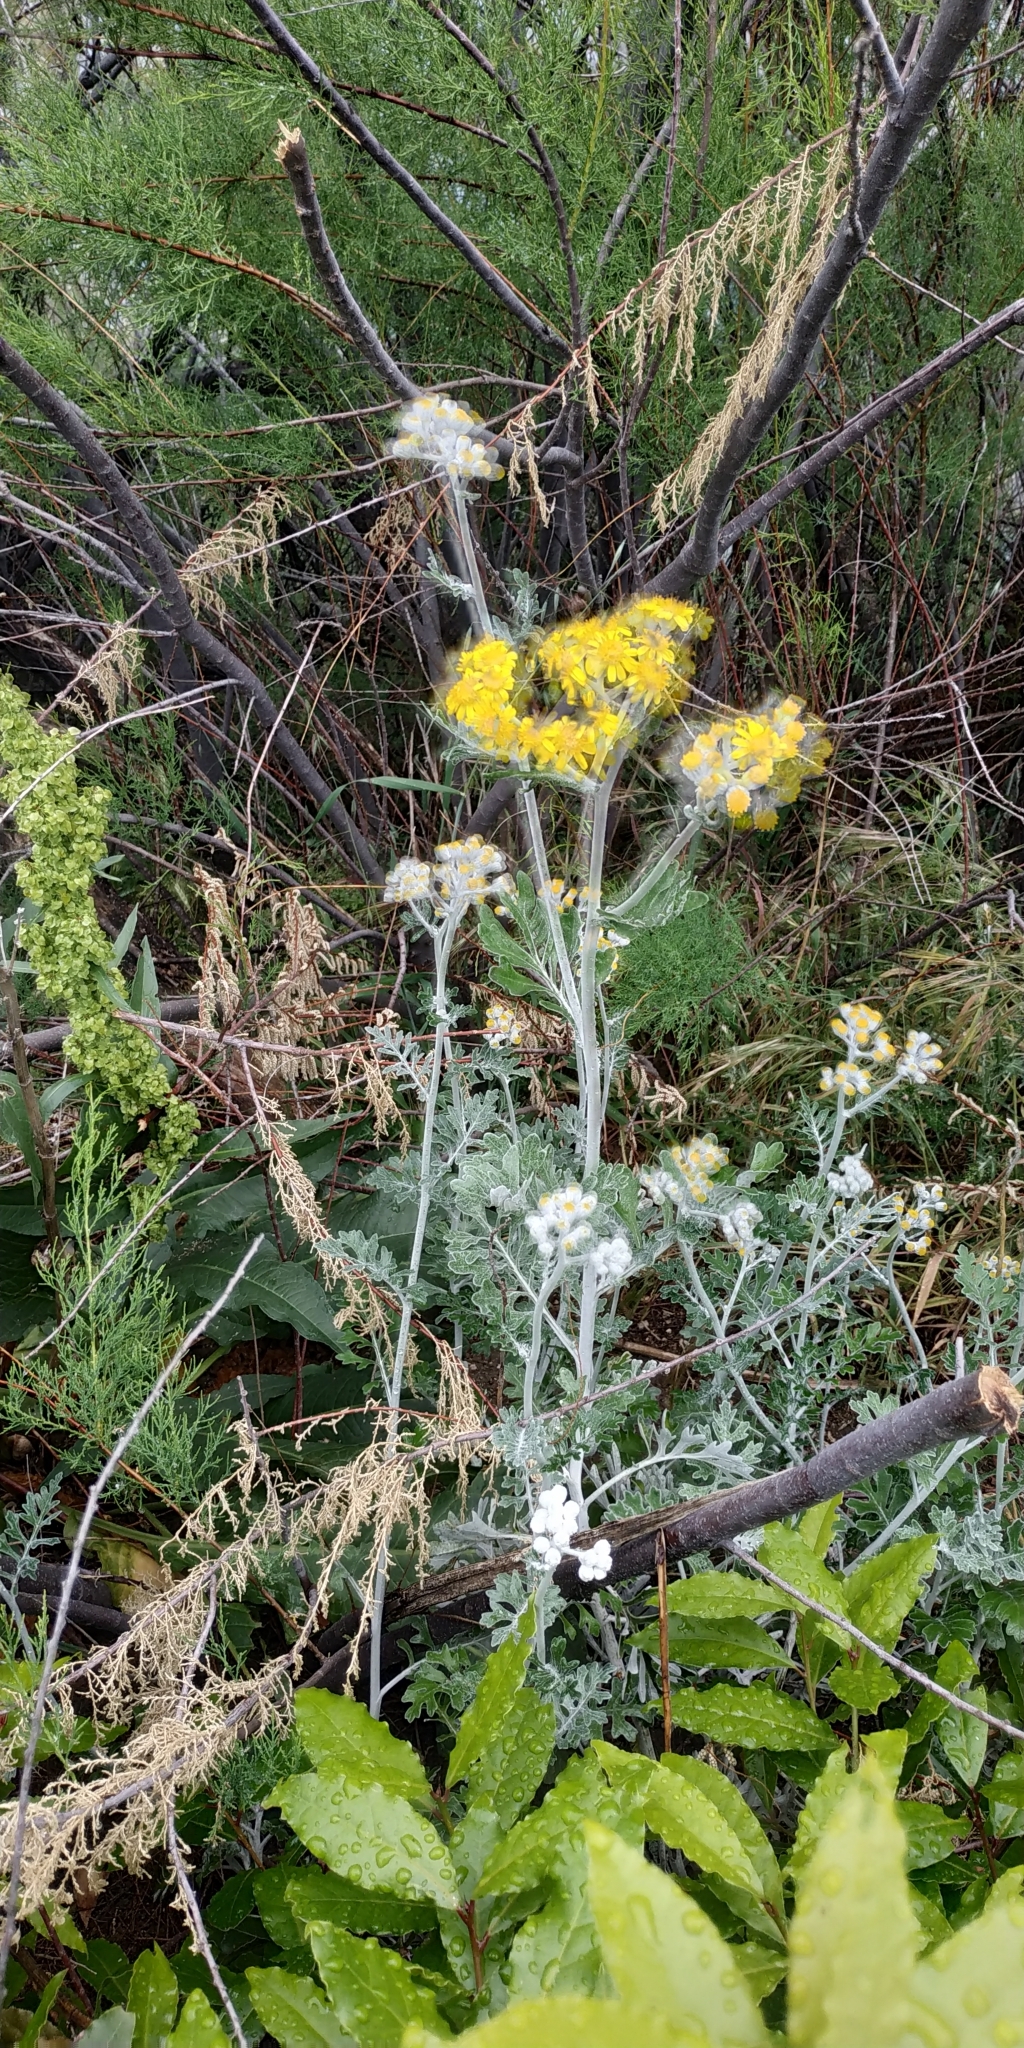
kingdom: Plantae
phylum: Tracheophyta
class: Magnoliopsida
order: Asterales
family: Asteraceae
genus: Jacobaea
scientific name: Jacobaea maritima
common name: Silver ragwort
